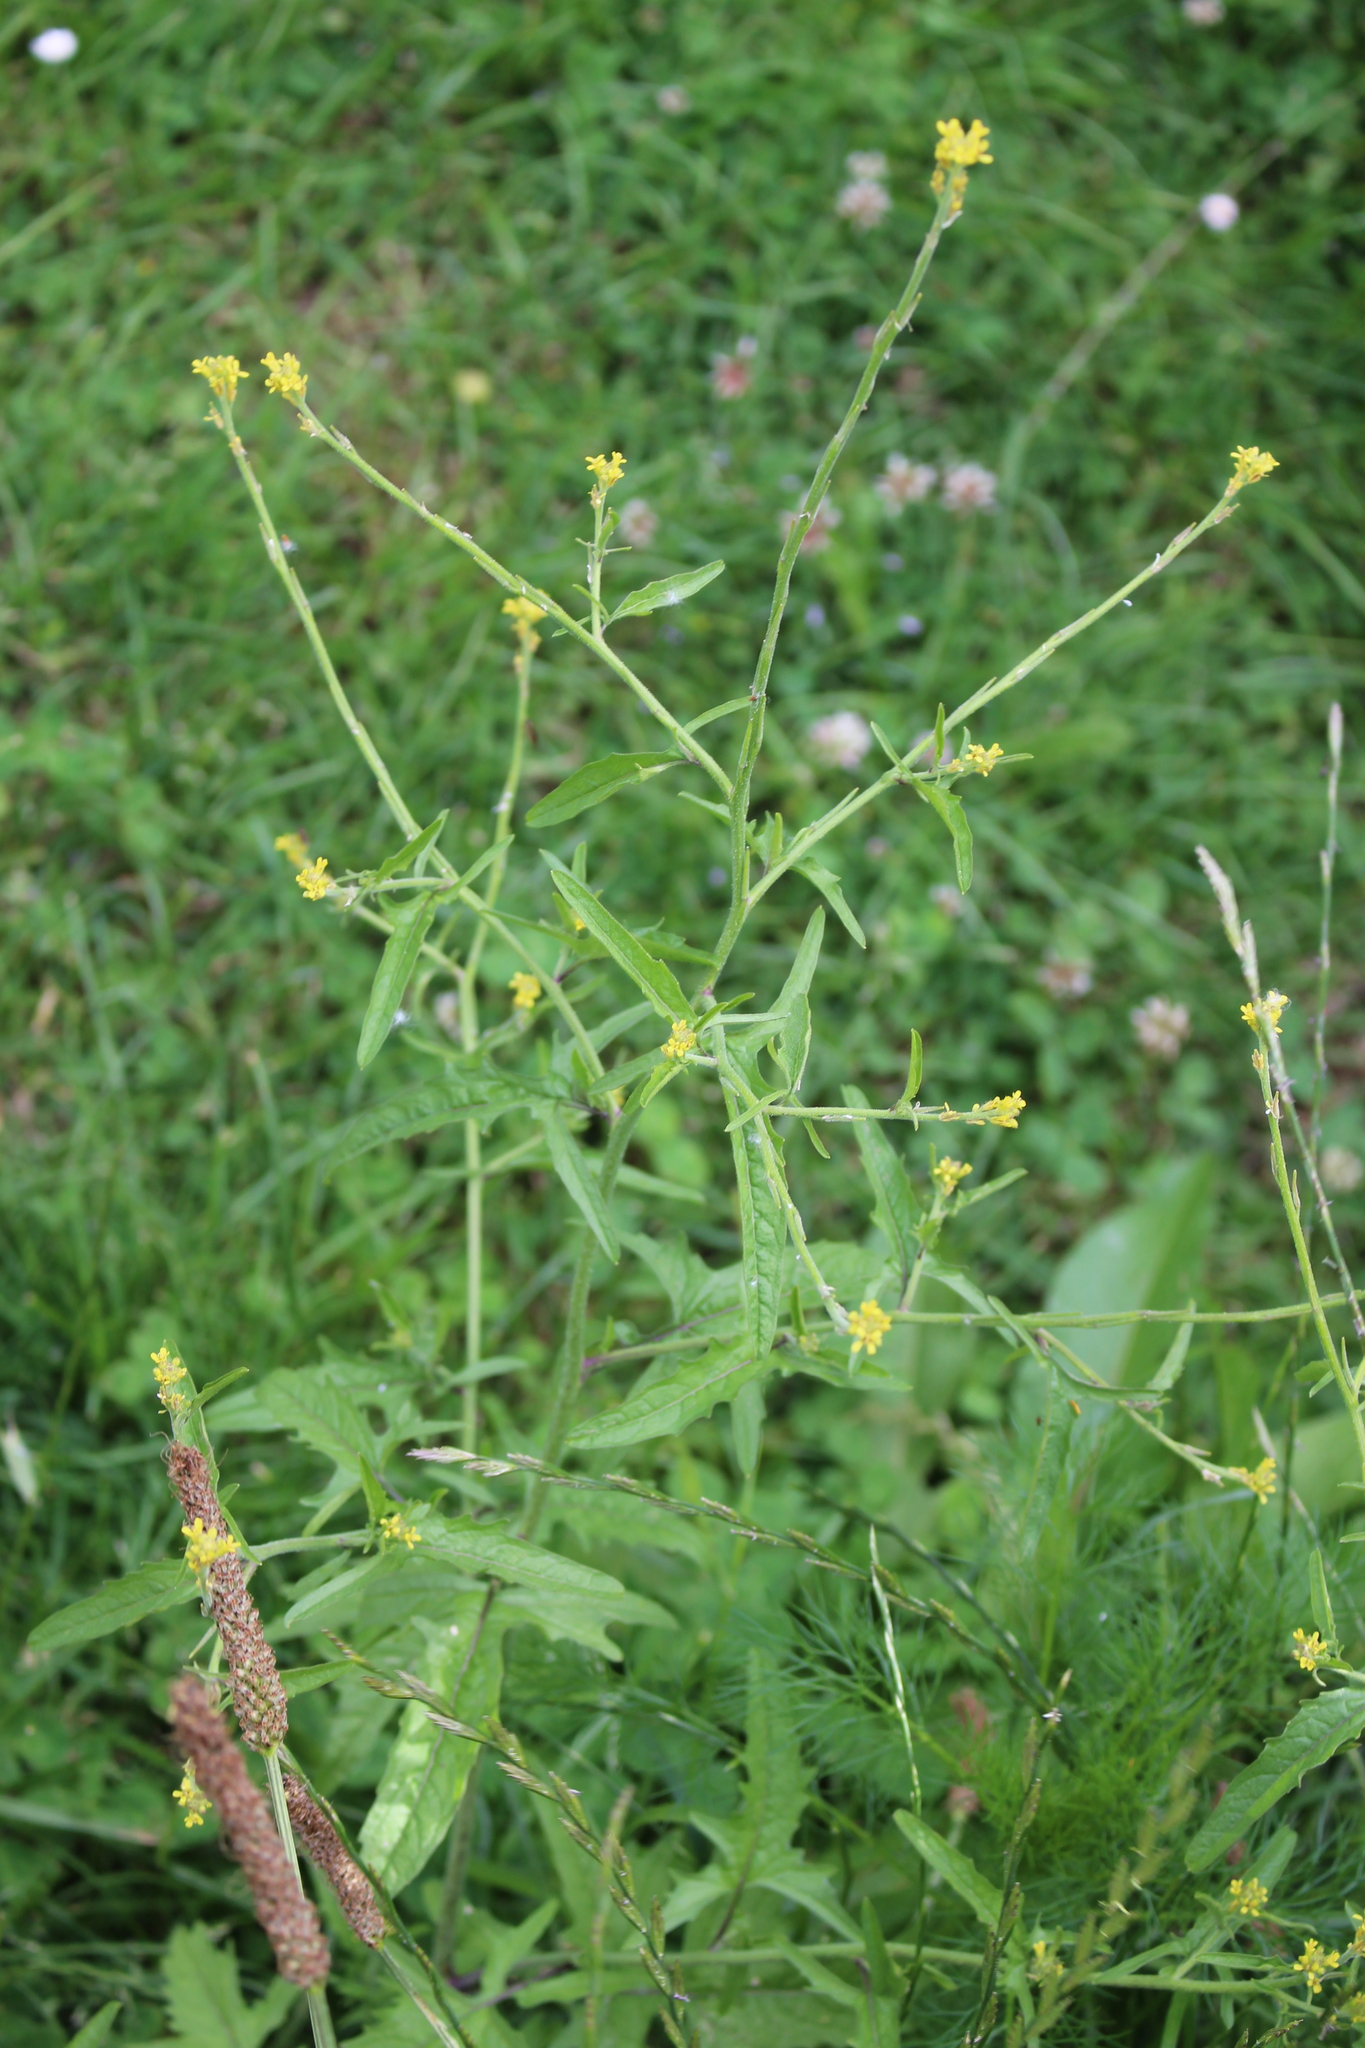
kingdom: Plantae
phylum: Tracheophyta
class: Magnoliopsida
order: Brassicales
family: Brassicaceae
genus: Sisymbrium
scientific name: Sisymbrium officinale
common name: Hedge mustard
